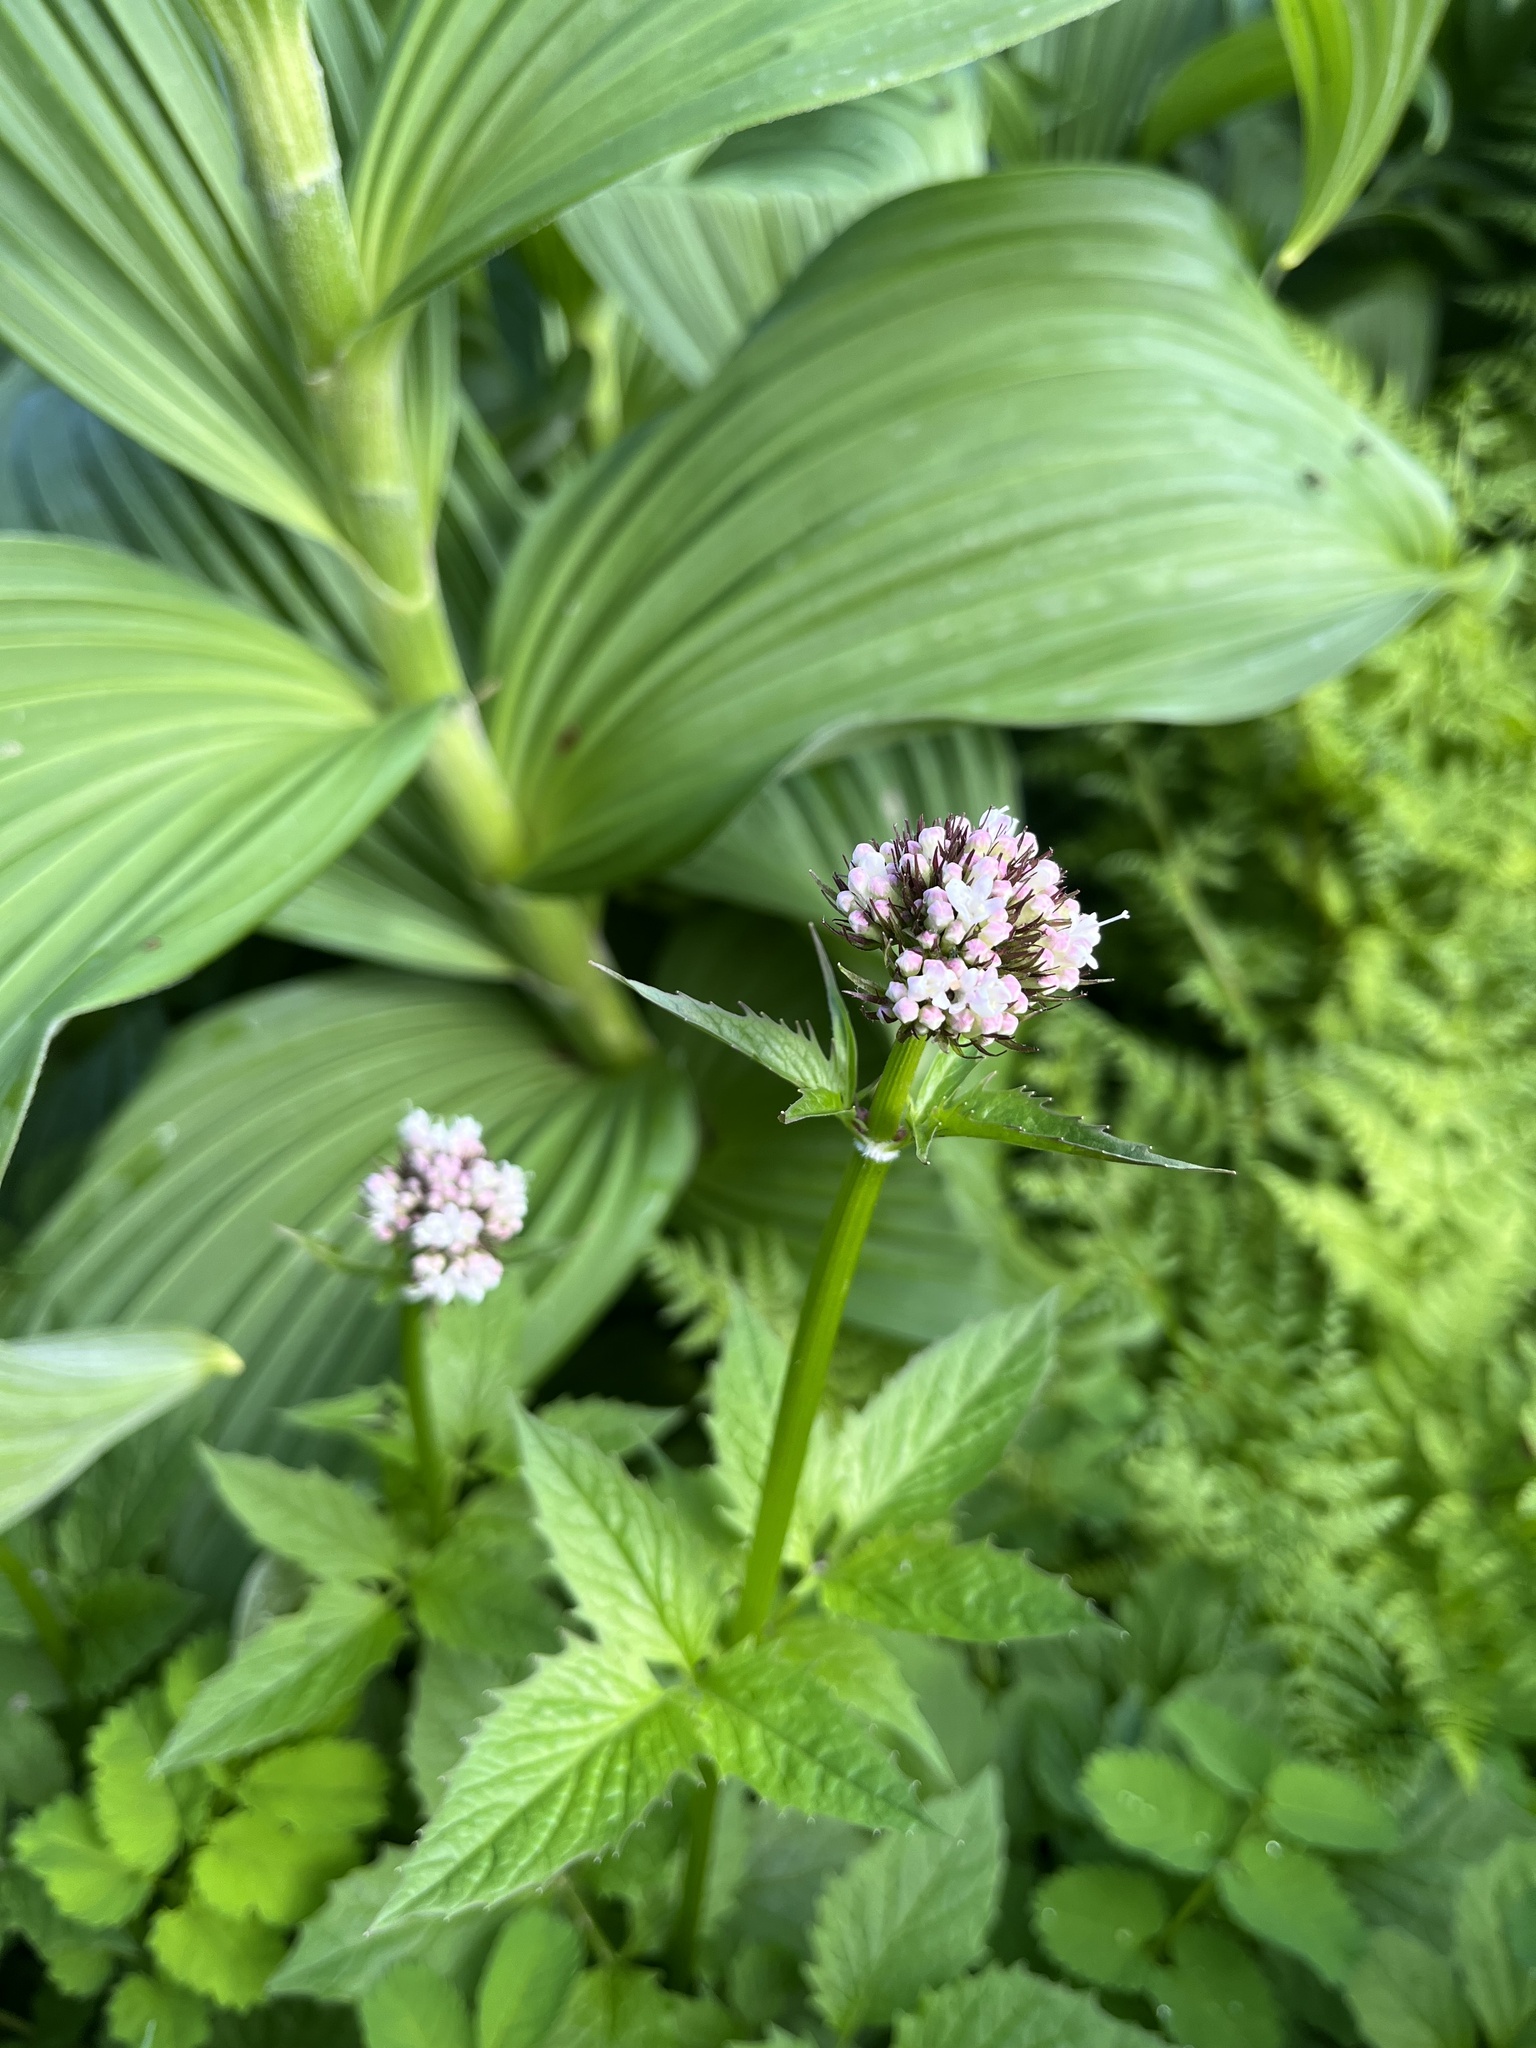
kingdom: Plantae
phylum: Tracheophyta
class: Magnoliopsida
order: Dipsacales
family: Caprifoliaceae
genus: Valeriana
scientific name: Valeriana sitchensis
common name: Pacific valerian
